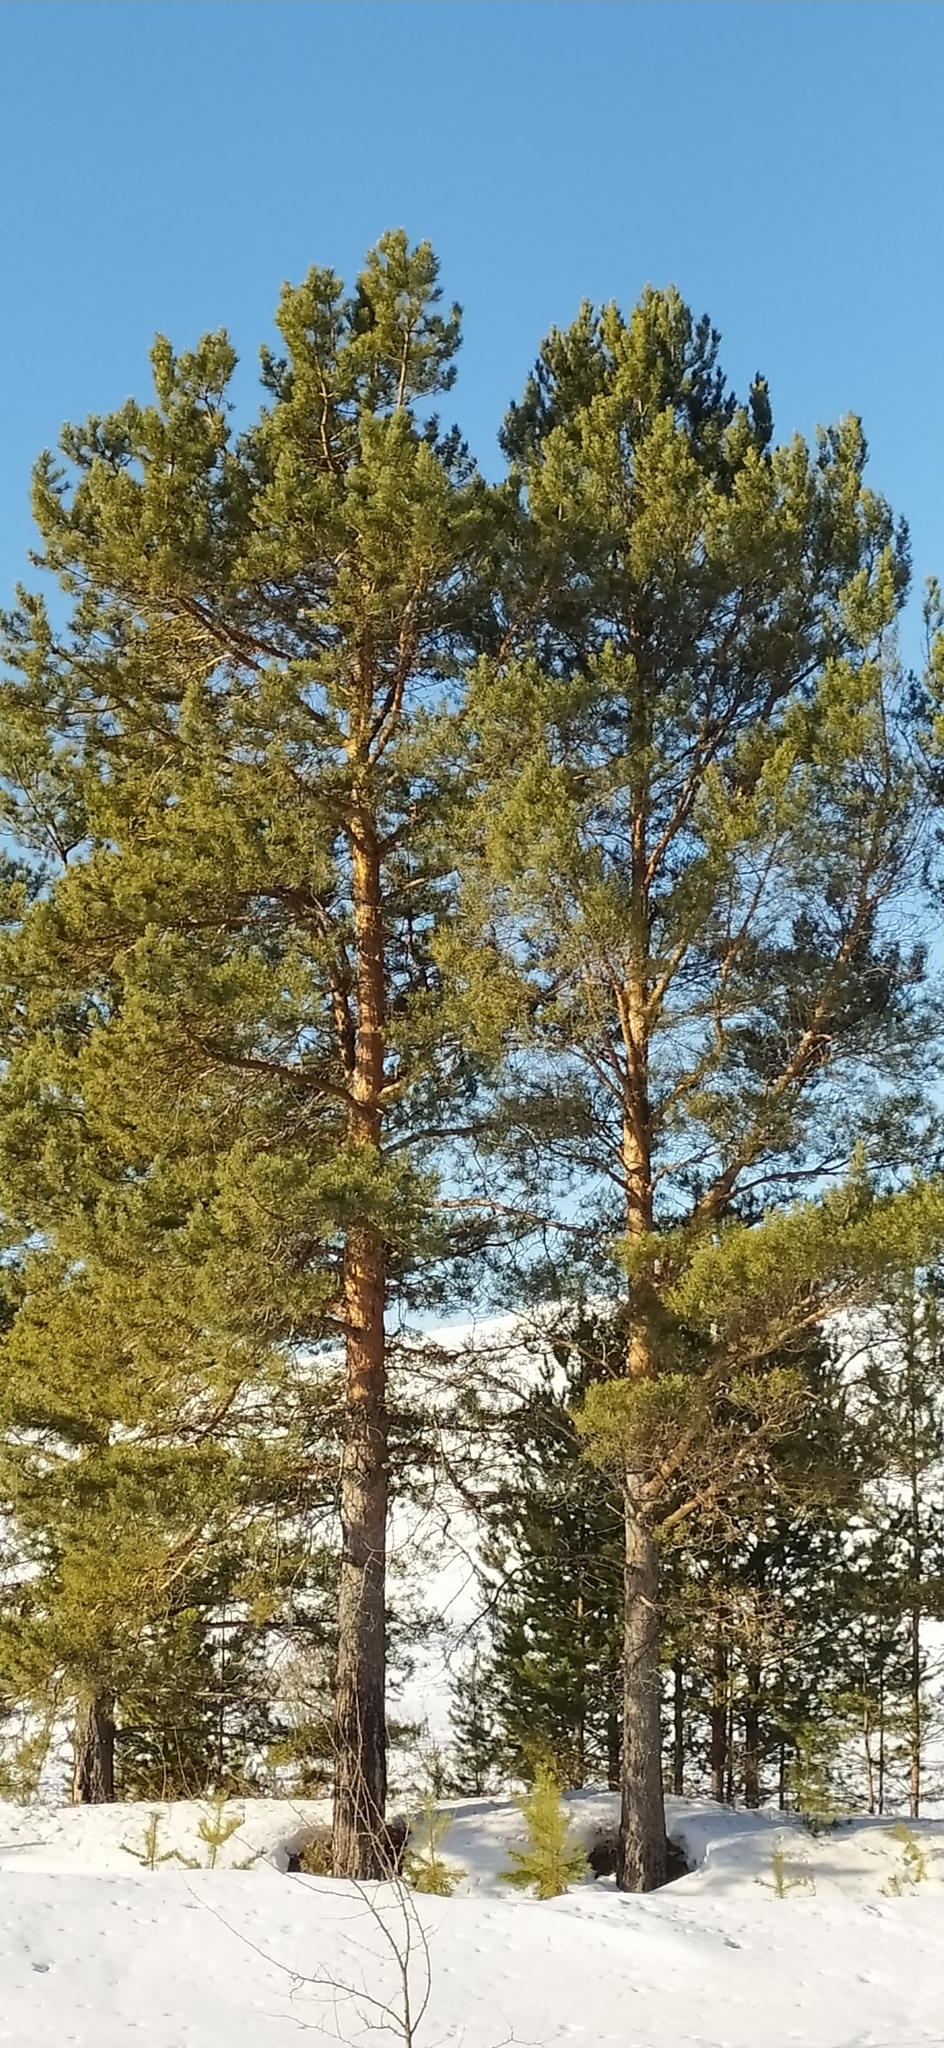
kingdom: Plantae
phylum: Tracheophyta
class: Pinopsida
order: Pinales
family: Pinaceae
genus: Pinus
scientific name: Pinus sylvestris
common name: Scots pine
